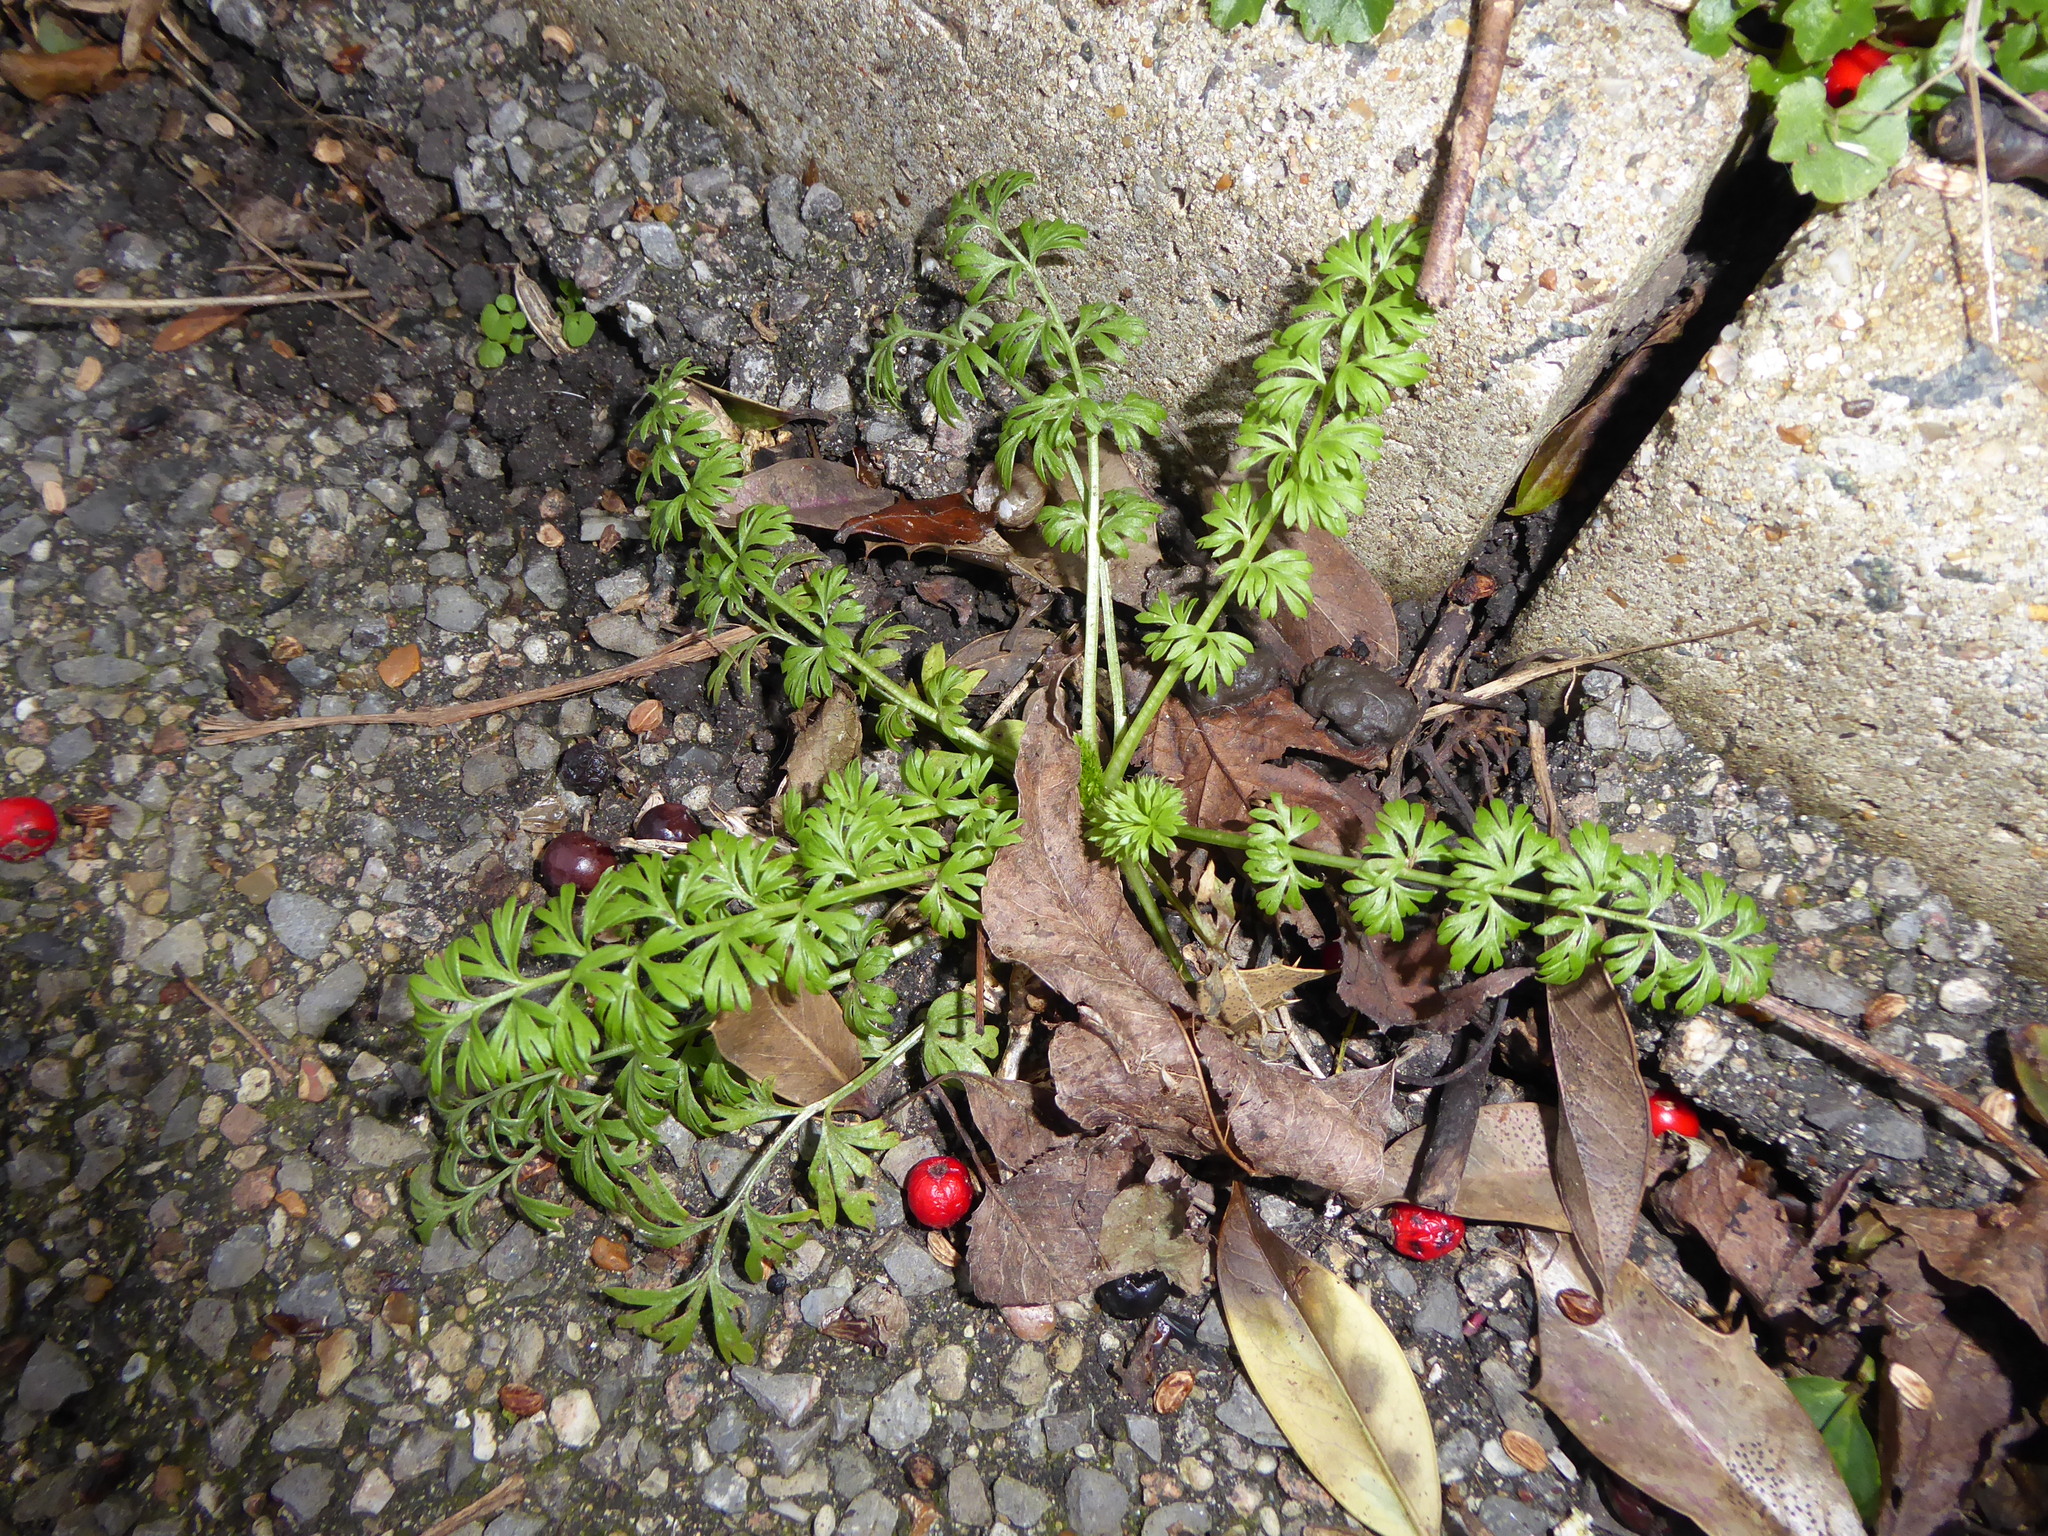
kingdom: Plantae
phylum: Tracheophyta
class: Magnoliopsida
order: Ranunculales
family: Ranunculaceae
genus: Nigella
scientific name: Nigella damascena
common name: Love-in-a-mist
